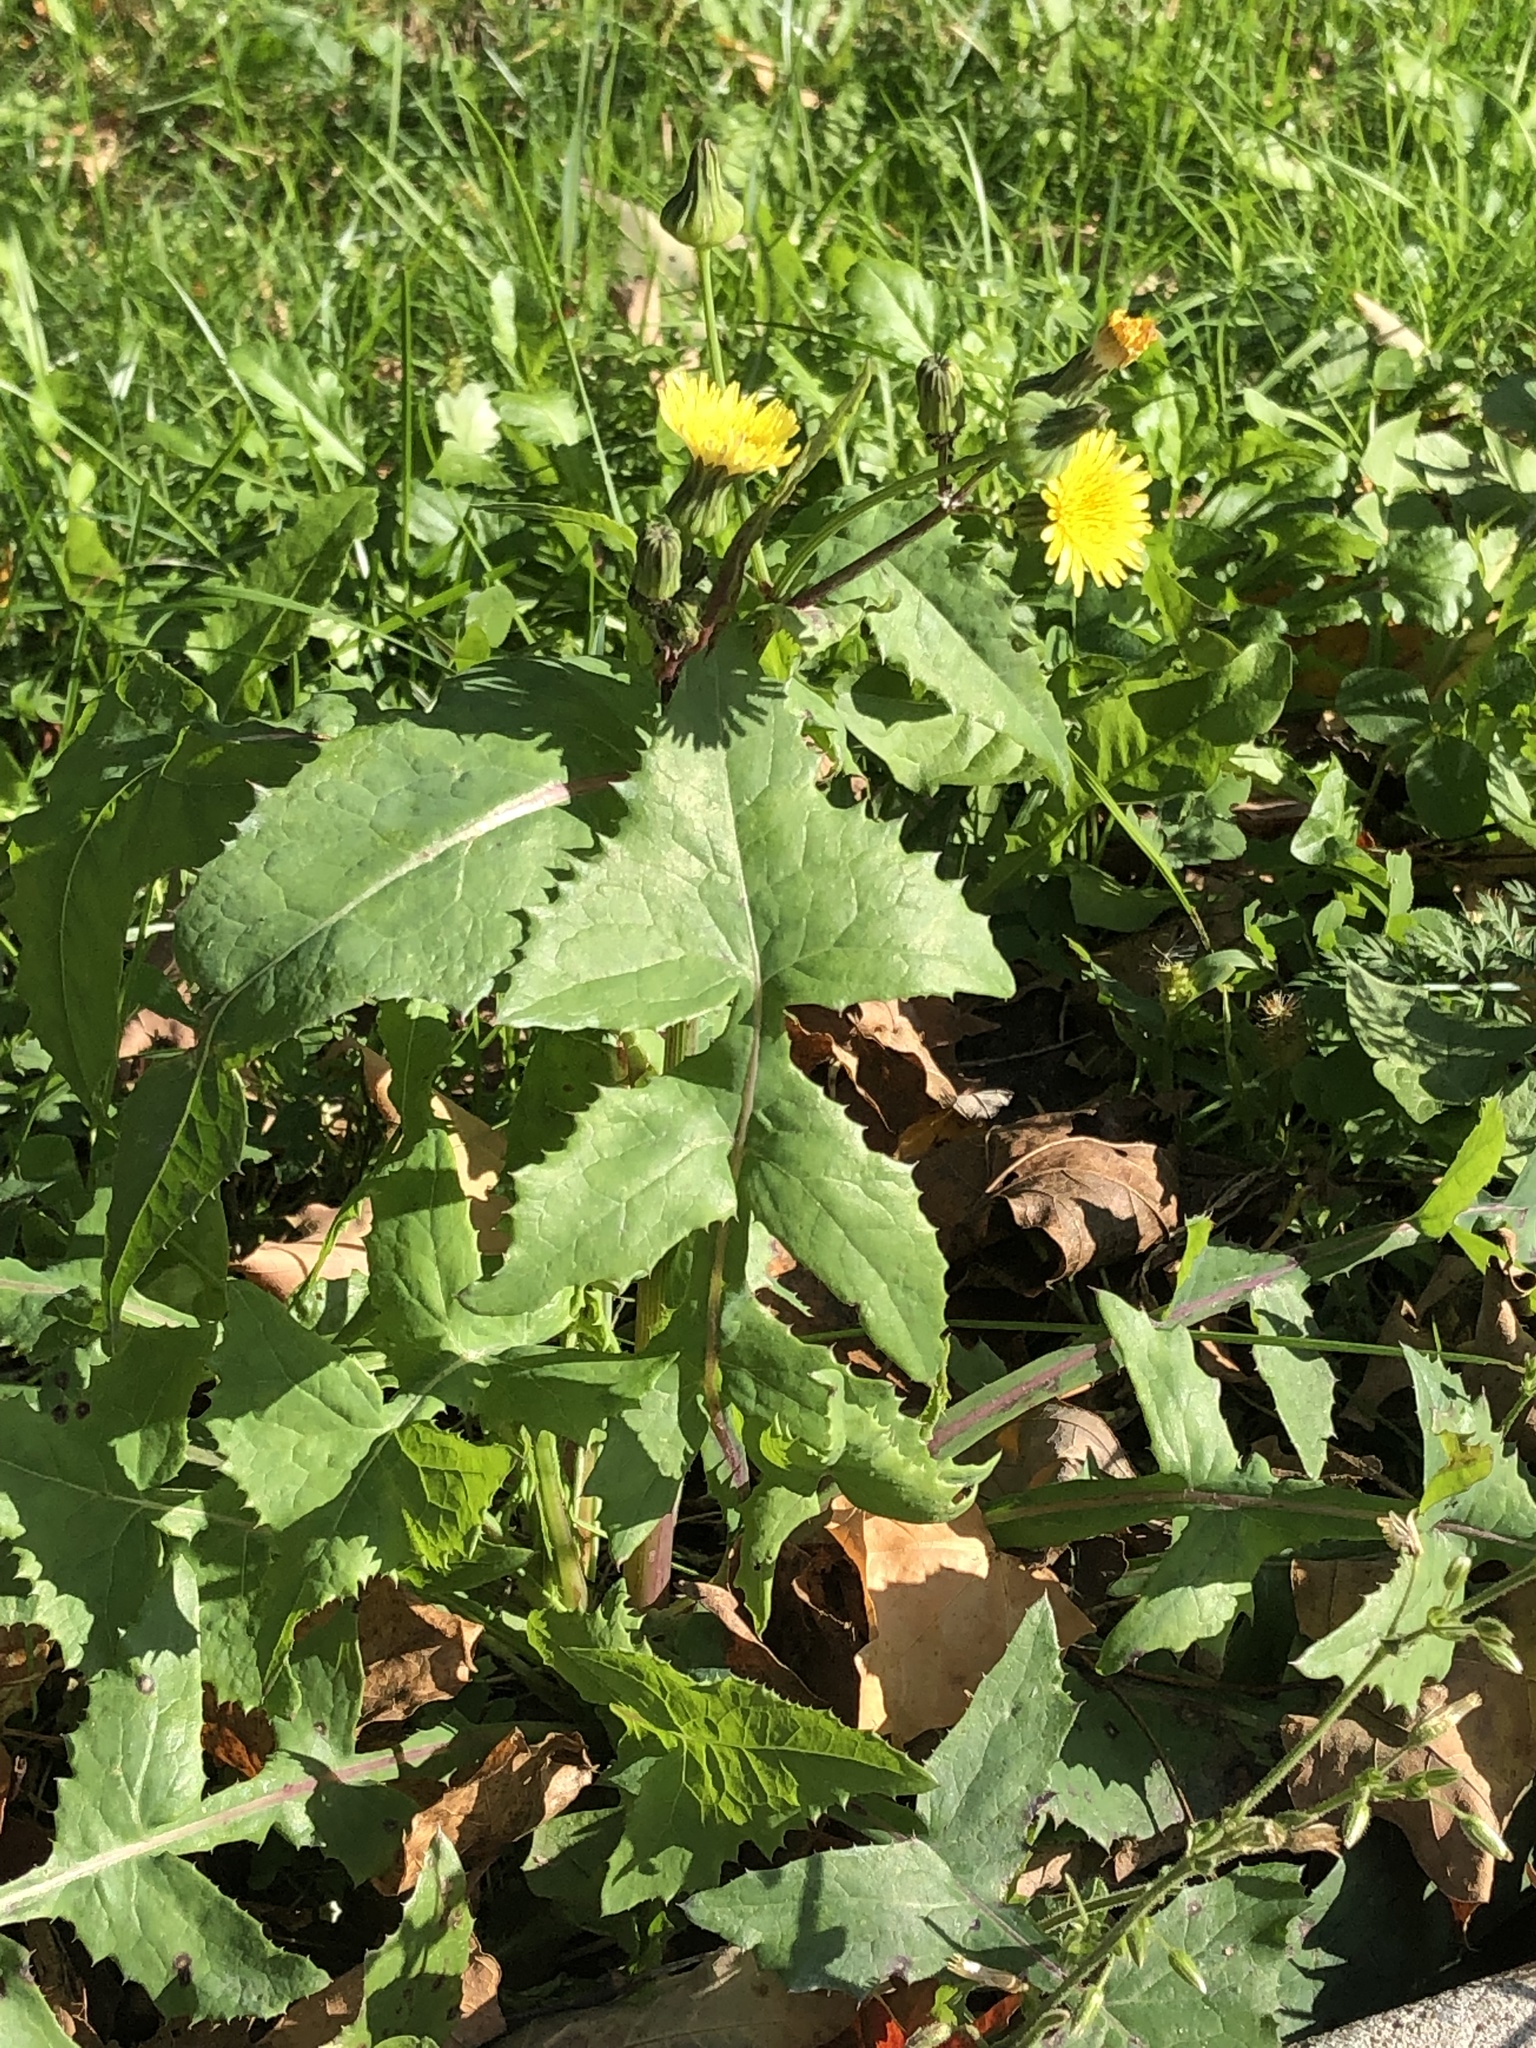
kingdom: Plantae
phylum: Tracheophyta
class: Magnoliopsida
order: Asterales
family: Asteraceae
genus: Sonchus
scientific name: Sonchus oleraceus
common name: Common sowthistle
